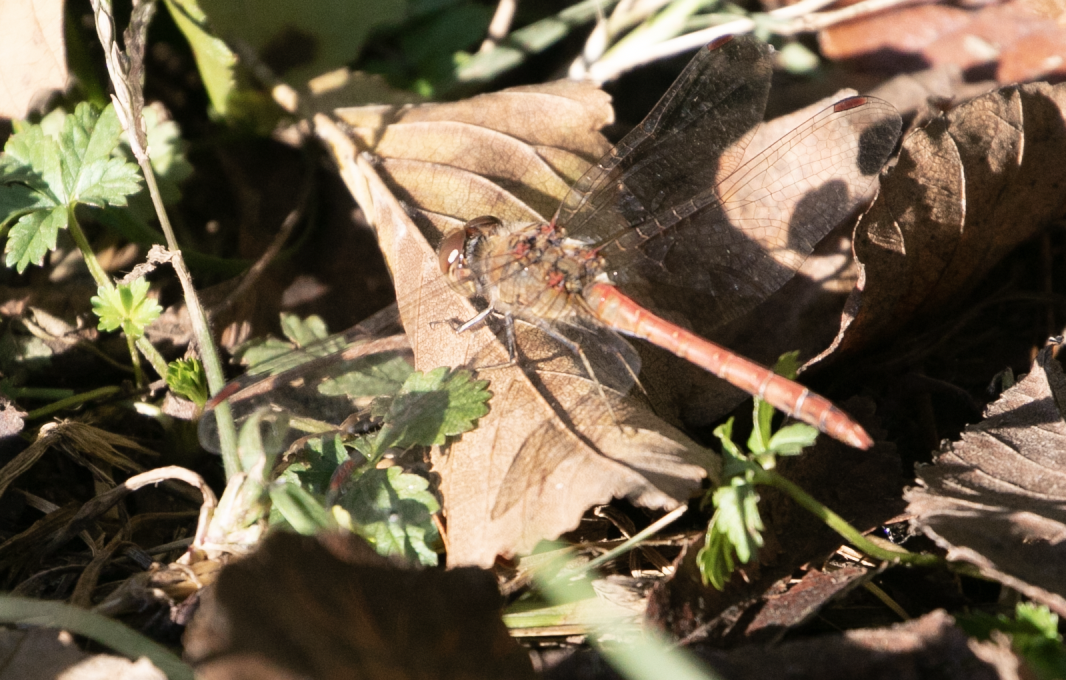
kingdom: Animalia
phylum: Arthropoda
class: Insecta
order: Odonata
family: Libellulidae
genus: Sympetrum
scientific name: Sympetrum striolatum
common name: Common darter
